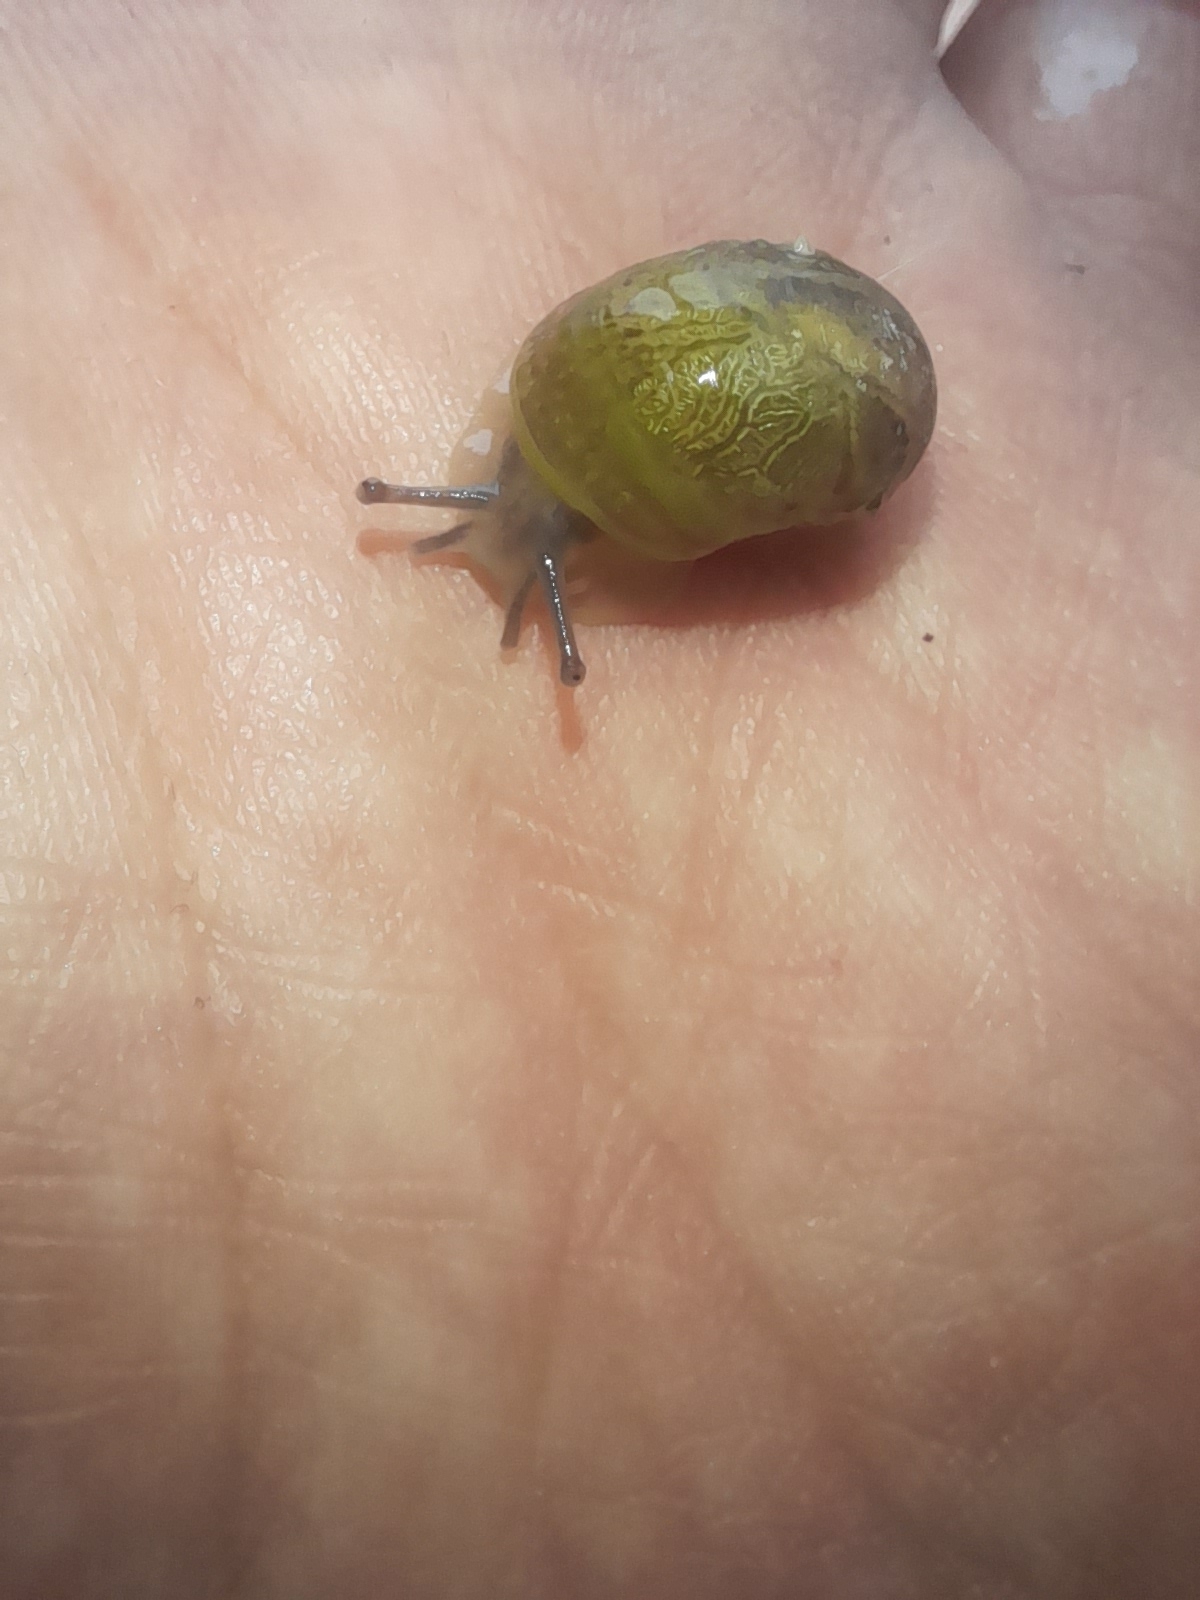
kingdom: Animalia
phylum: Mollusca
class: Gastropoda
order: Stylommatophora
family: Helicidae
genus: Cantareus
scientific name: Cantareus apertus
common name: Green gardensnail
